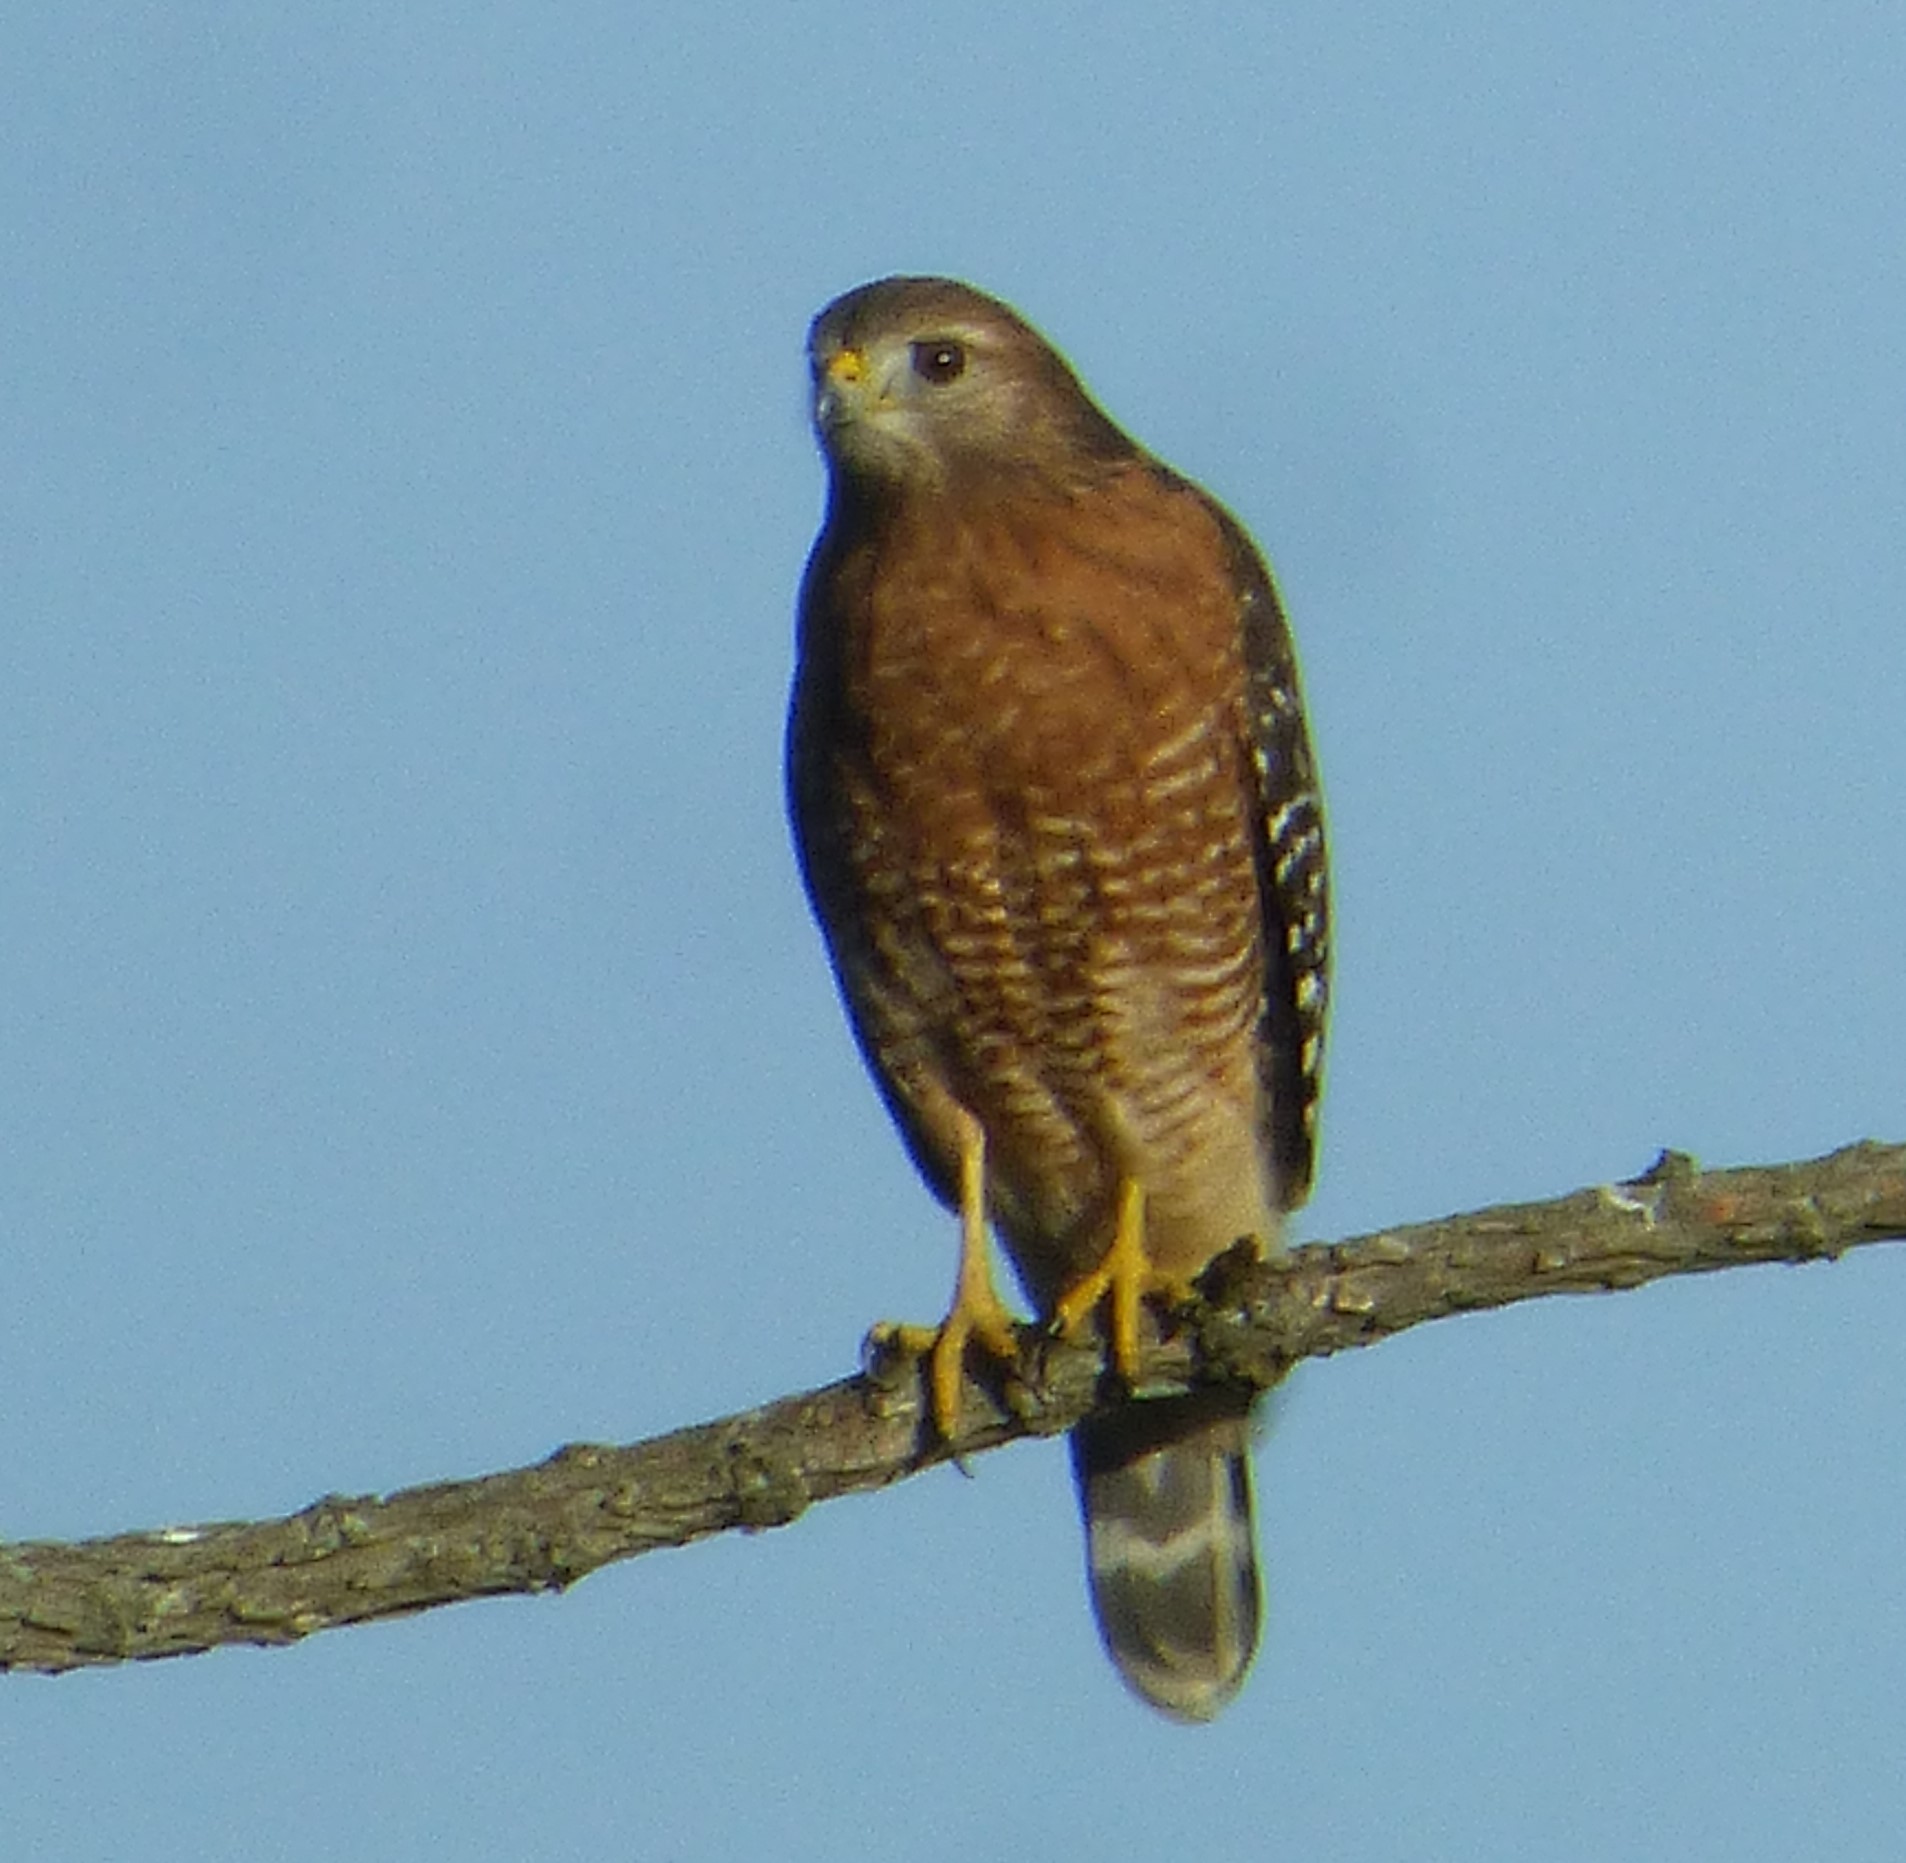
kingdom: Animalia
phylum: Chordata
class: Aves
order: Accipitriformes
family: Accipitridae
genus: Buteo
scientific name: Buteo lineatus
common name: Red-shouldered hawk
